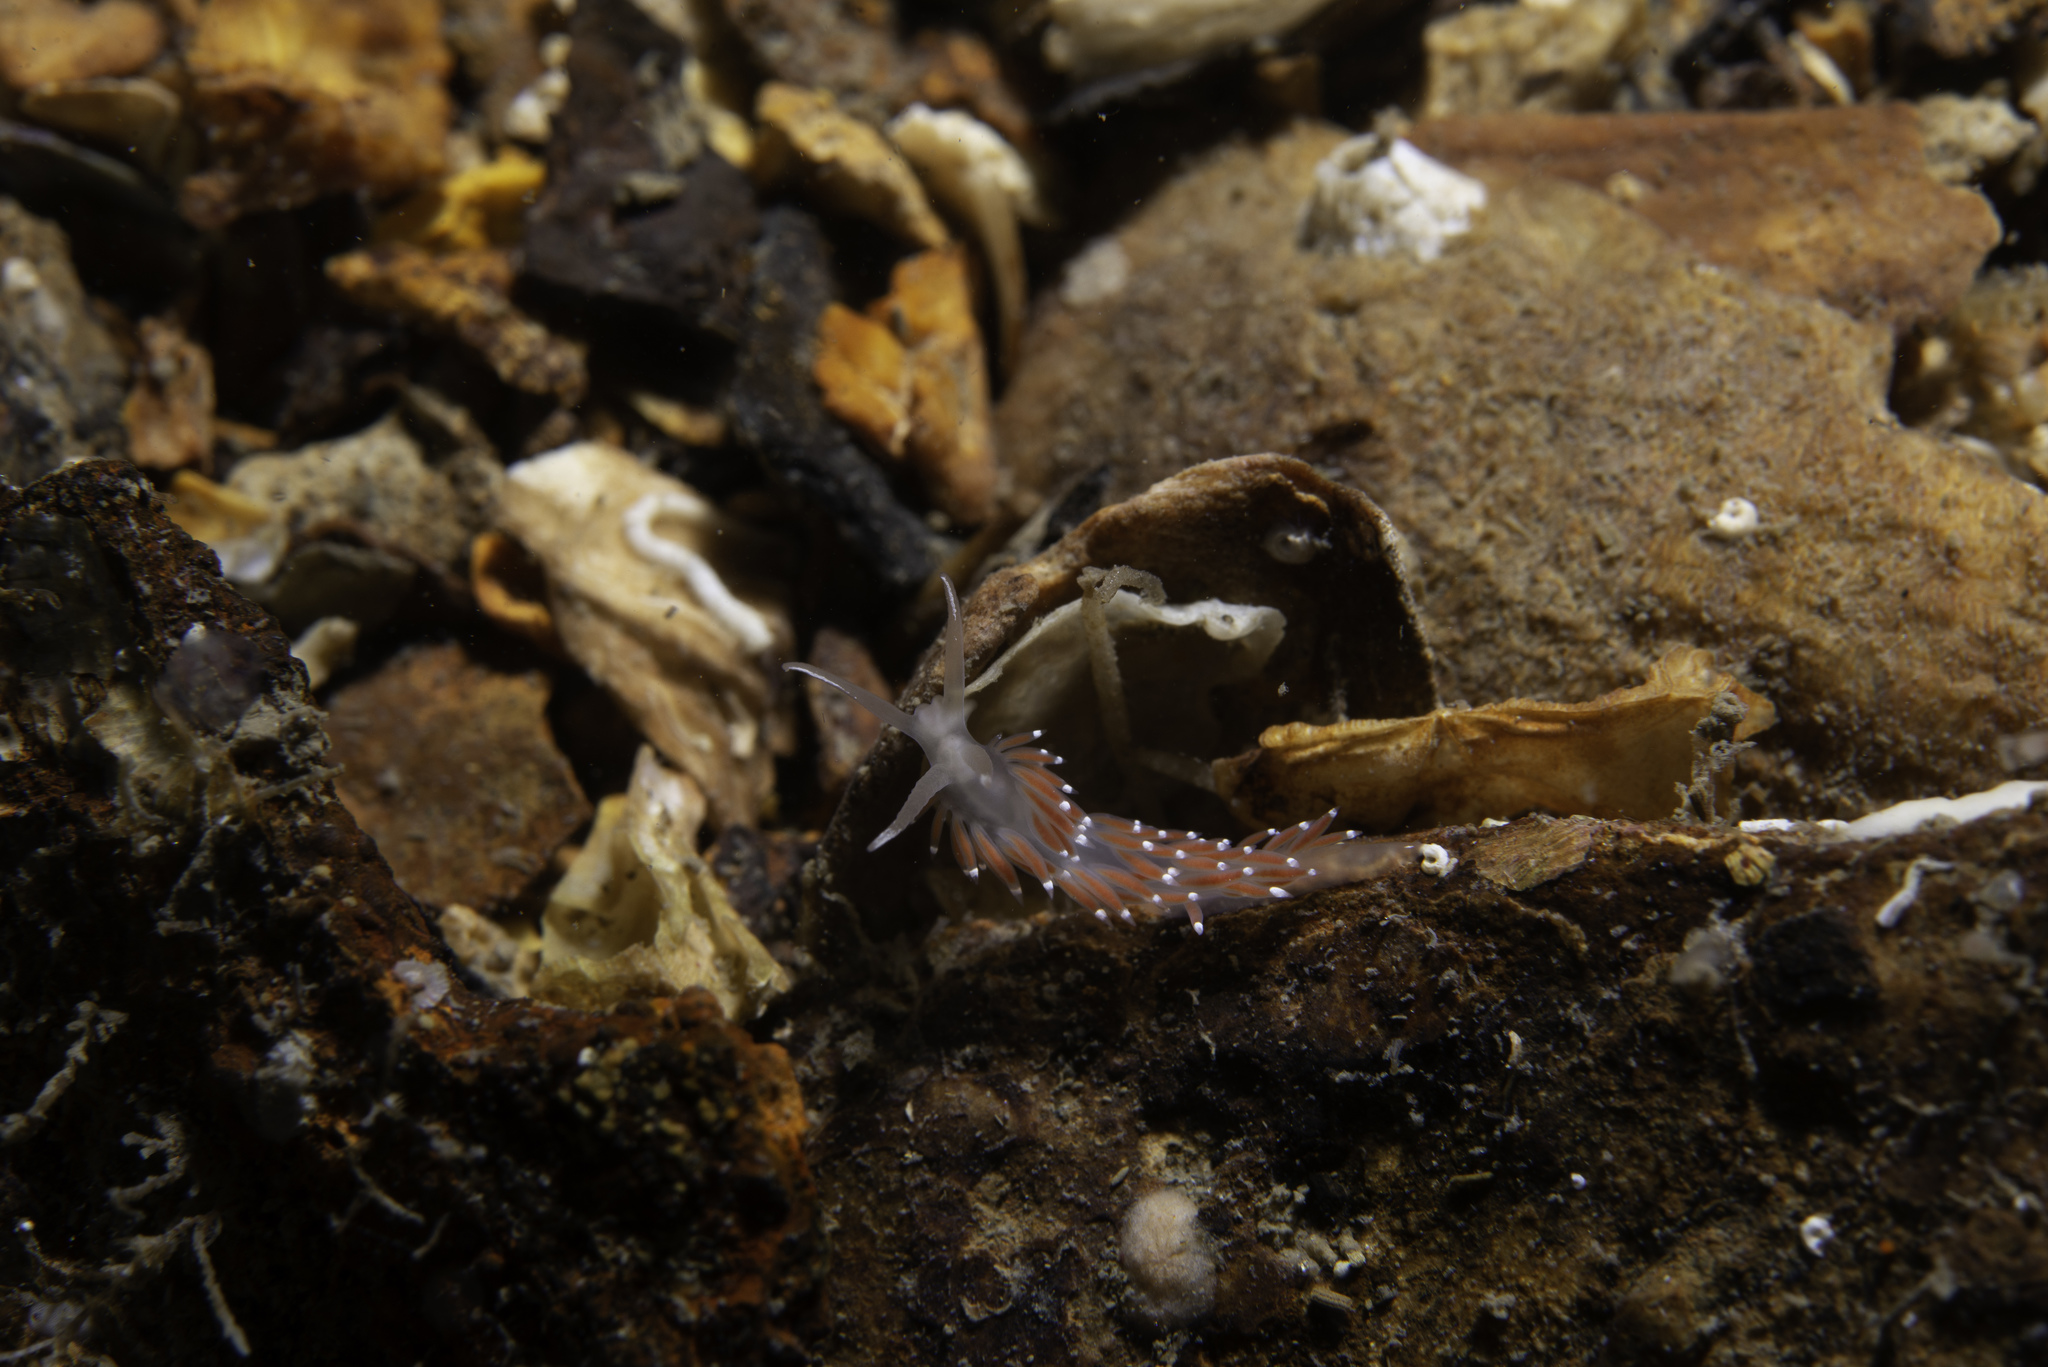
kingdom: Animalia
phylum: Mollusca
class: Gastropoda
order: Nudibranchia
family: Coryphellidae
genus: Coryphella
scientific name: Coryphella browni
